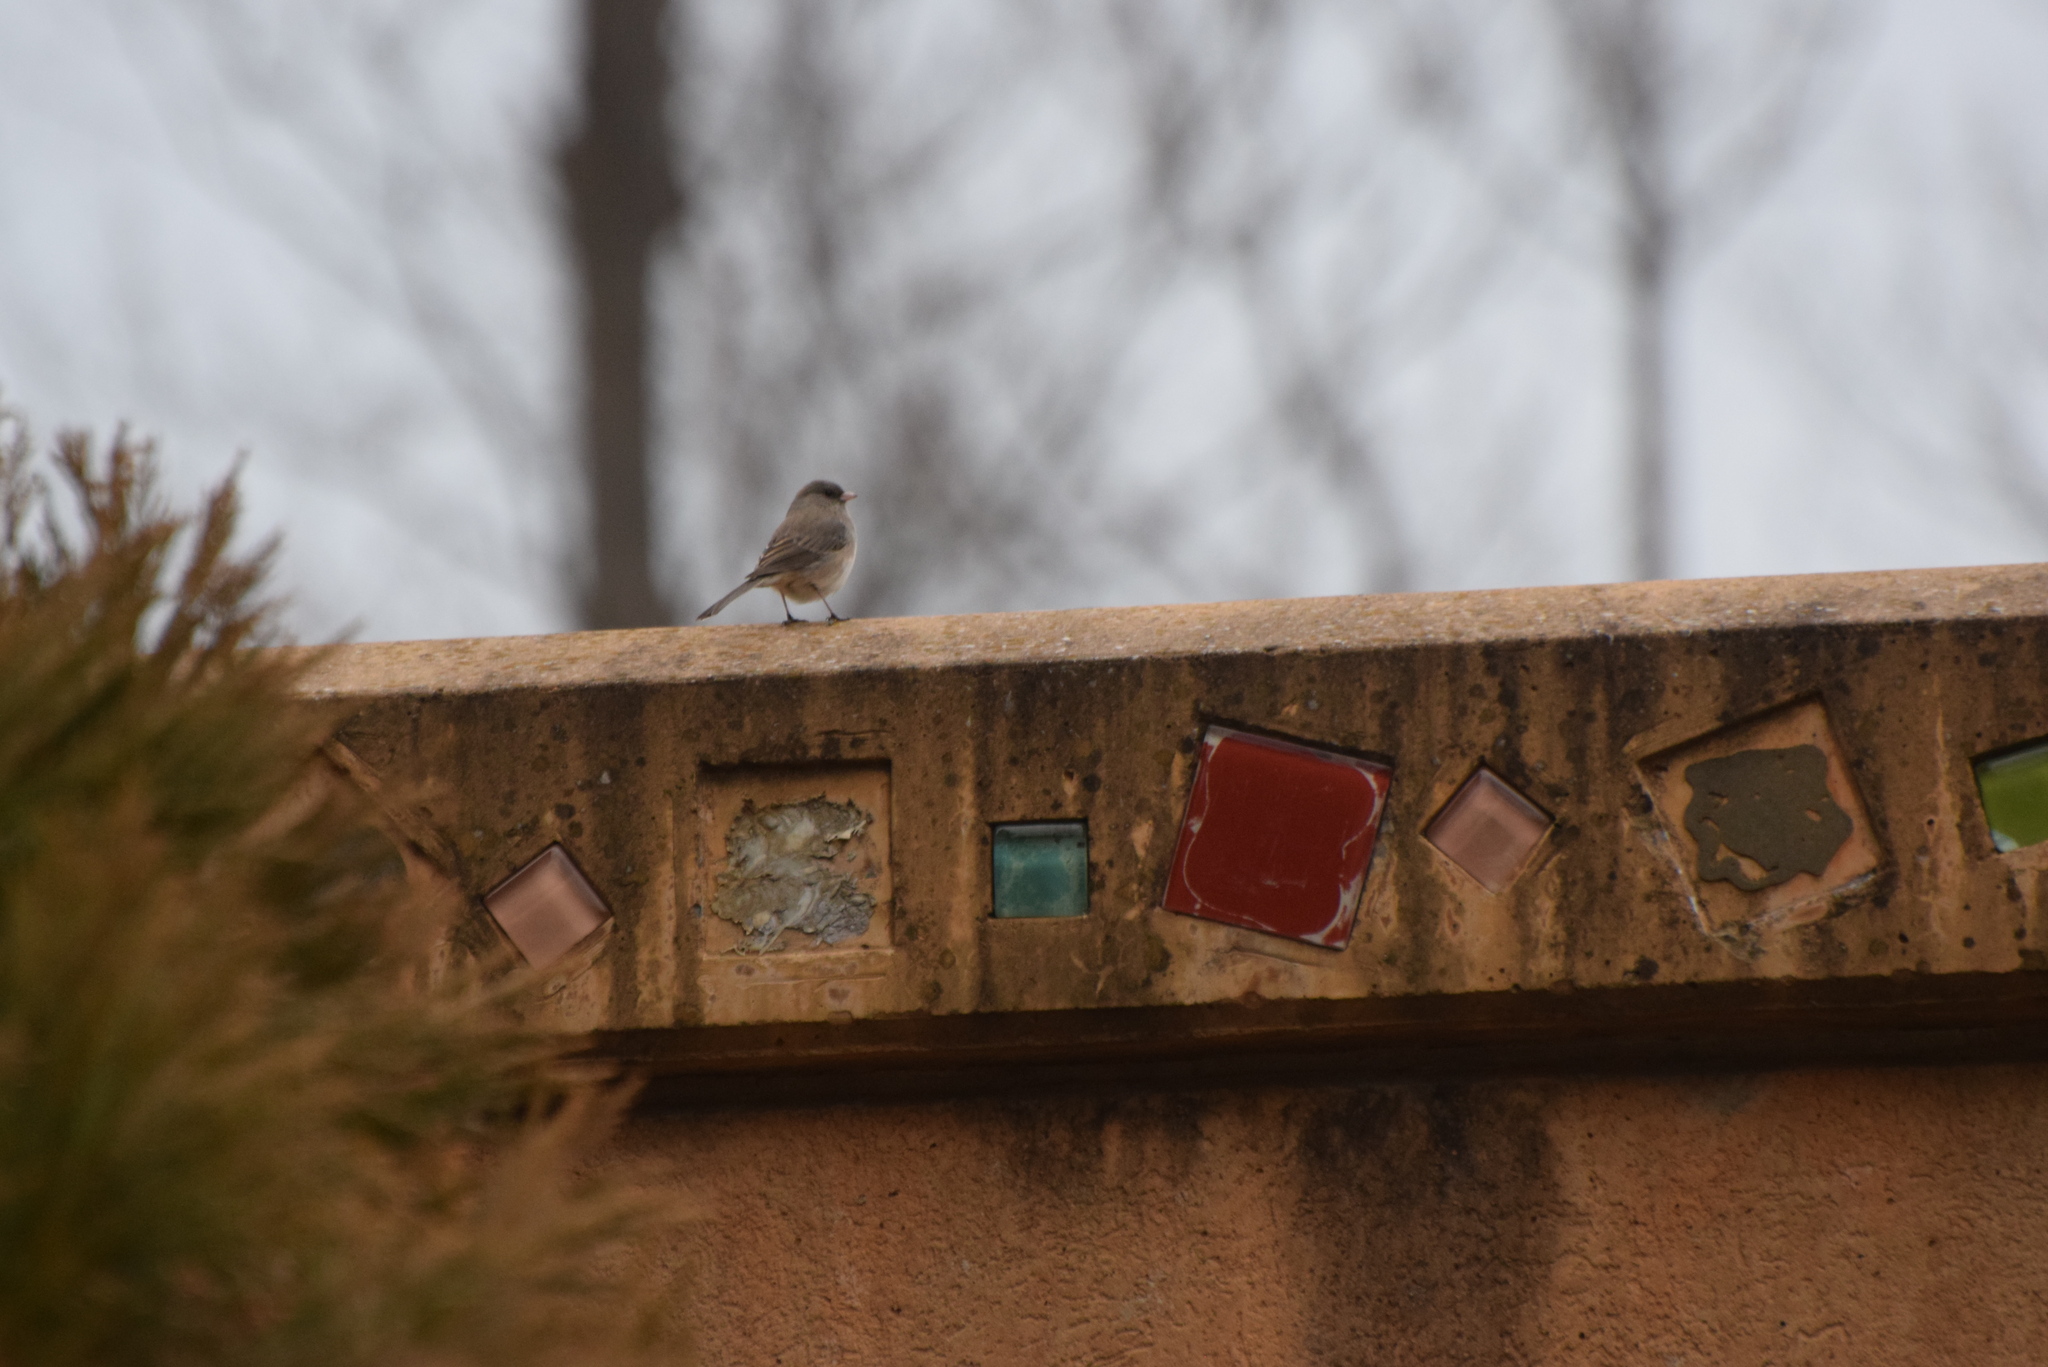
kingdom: Animalia
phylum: Chordata
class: Aves
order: Passeriformes
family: Passerellidae
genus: Junco
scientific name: Junco hyemalis
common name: Dark-eyed junco
